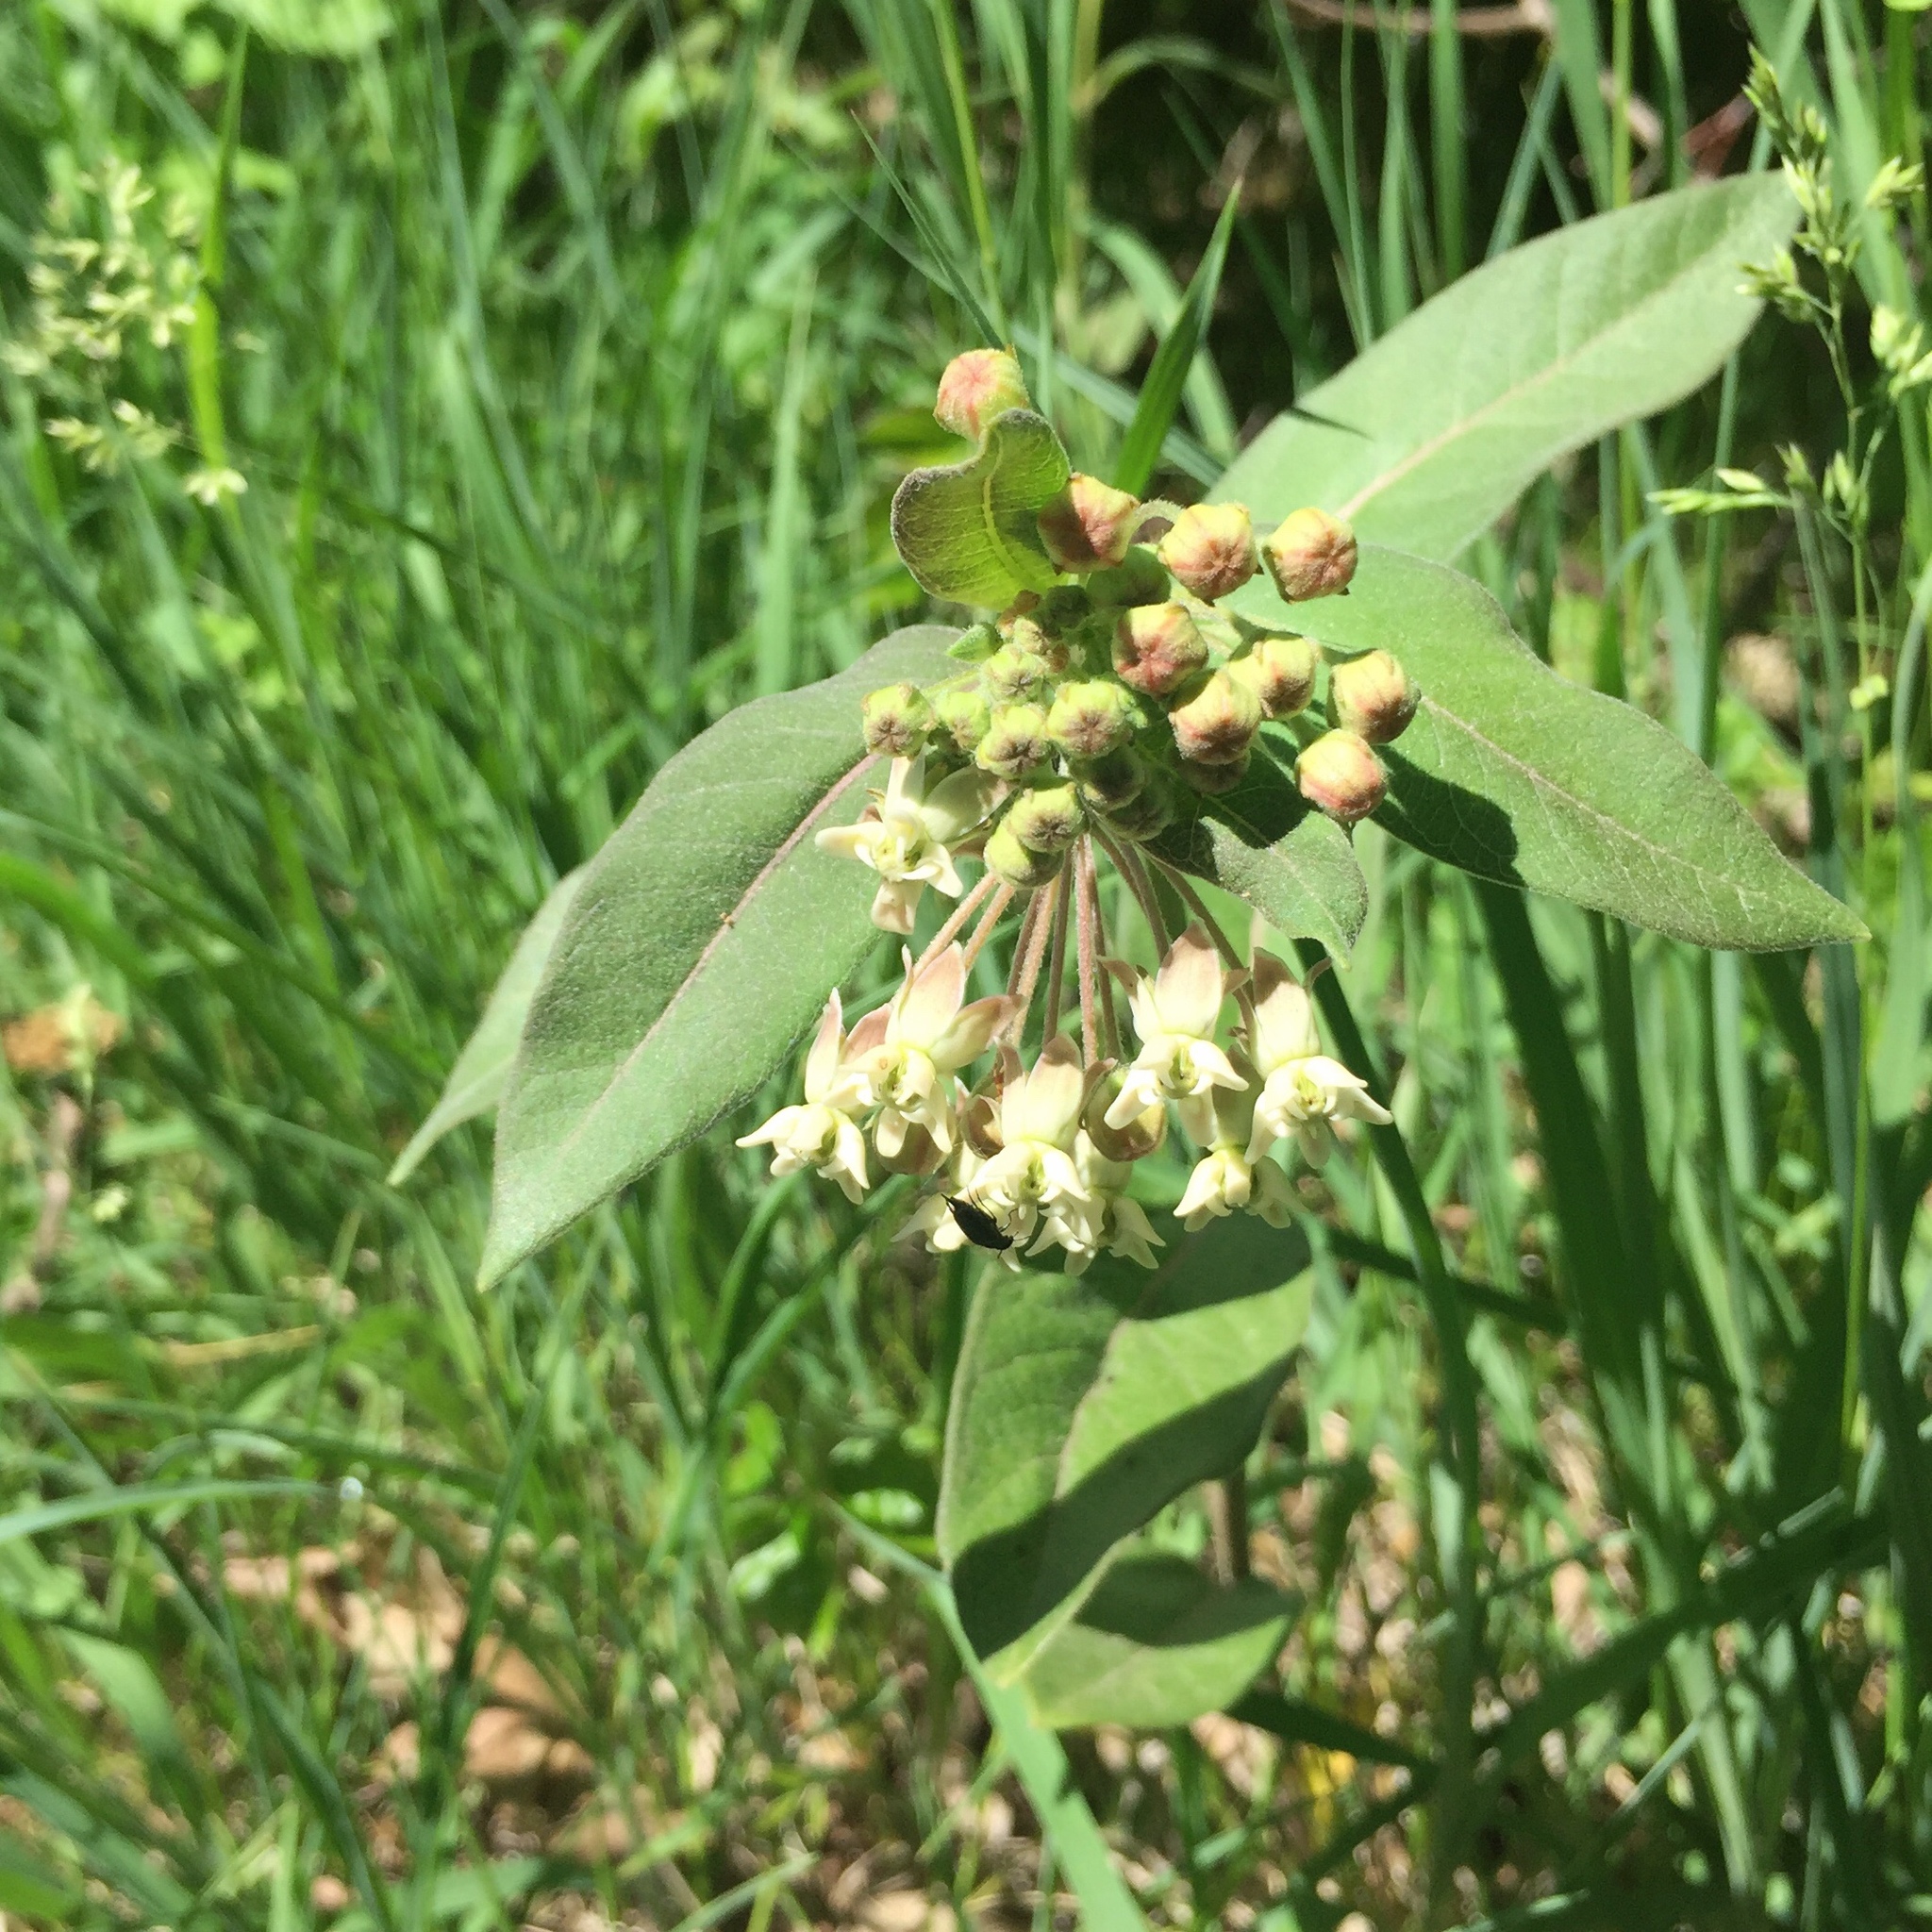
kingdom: Plantae
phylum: Tracheophyta
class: Magnoliopsida
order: Gentianales
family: Apocynaceae
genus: Asclepias
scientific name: Asclepias ovalifolia
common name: Dwarf milkweed
